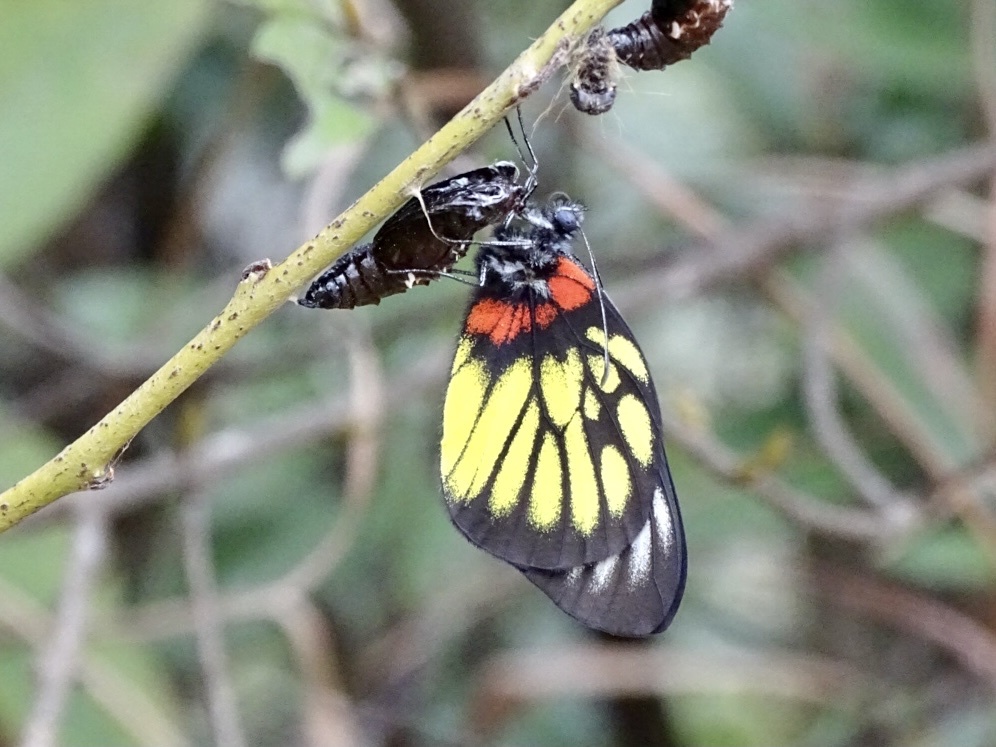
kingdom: Animalia
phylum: Arthropoda
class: Insecta
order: Lepidoptera
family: Pieridae
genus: Delias
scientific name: Delias pasithoe
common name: Red-base jezebel
